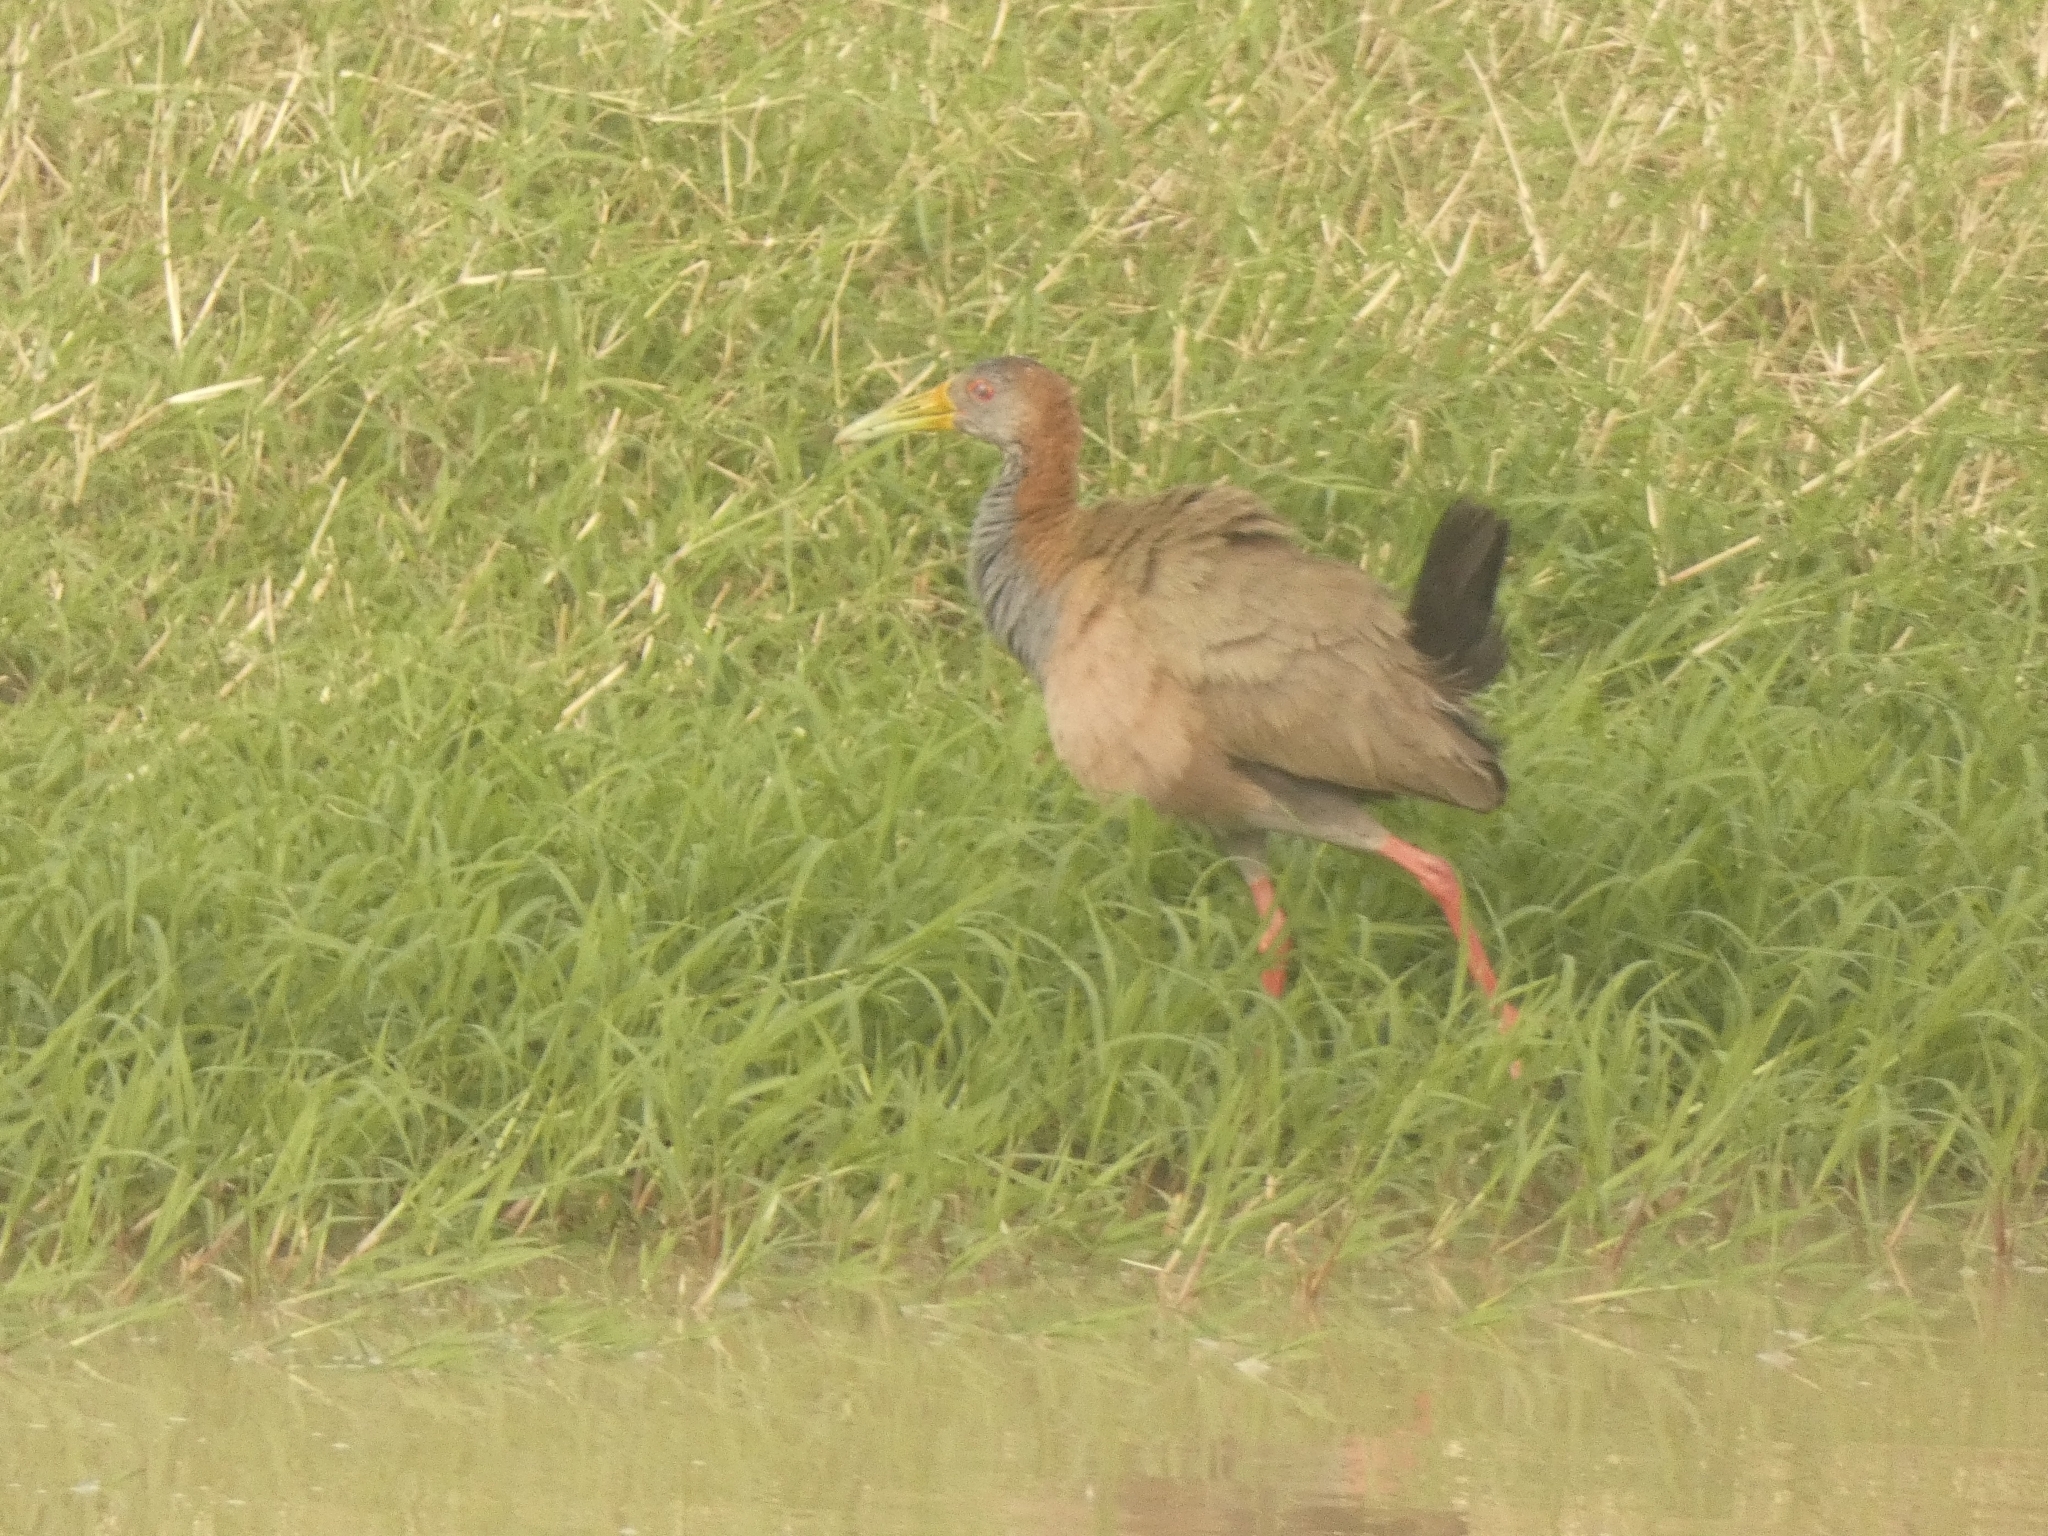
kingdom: Animalia
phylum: Chordata
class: Aves
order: Gruiformes
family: Rallidae
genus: Aramides
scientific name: Aramides ypecaha
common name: Giant wood rail
